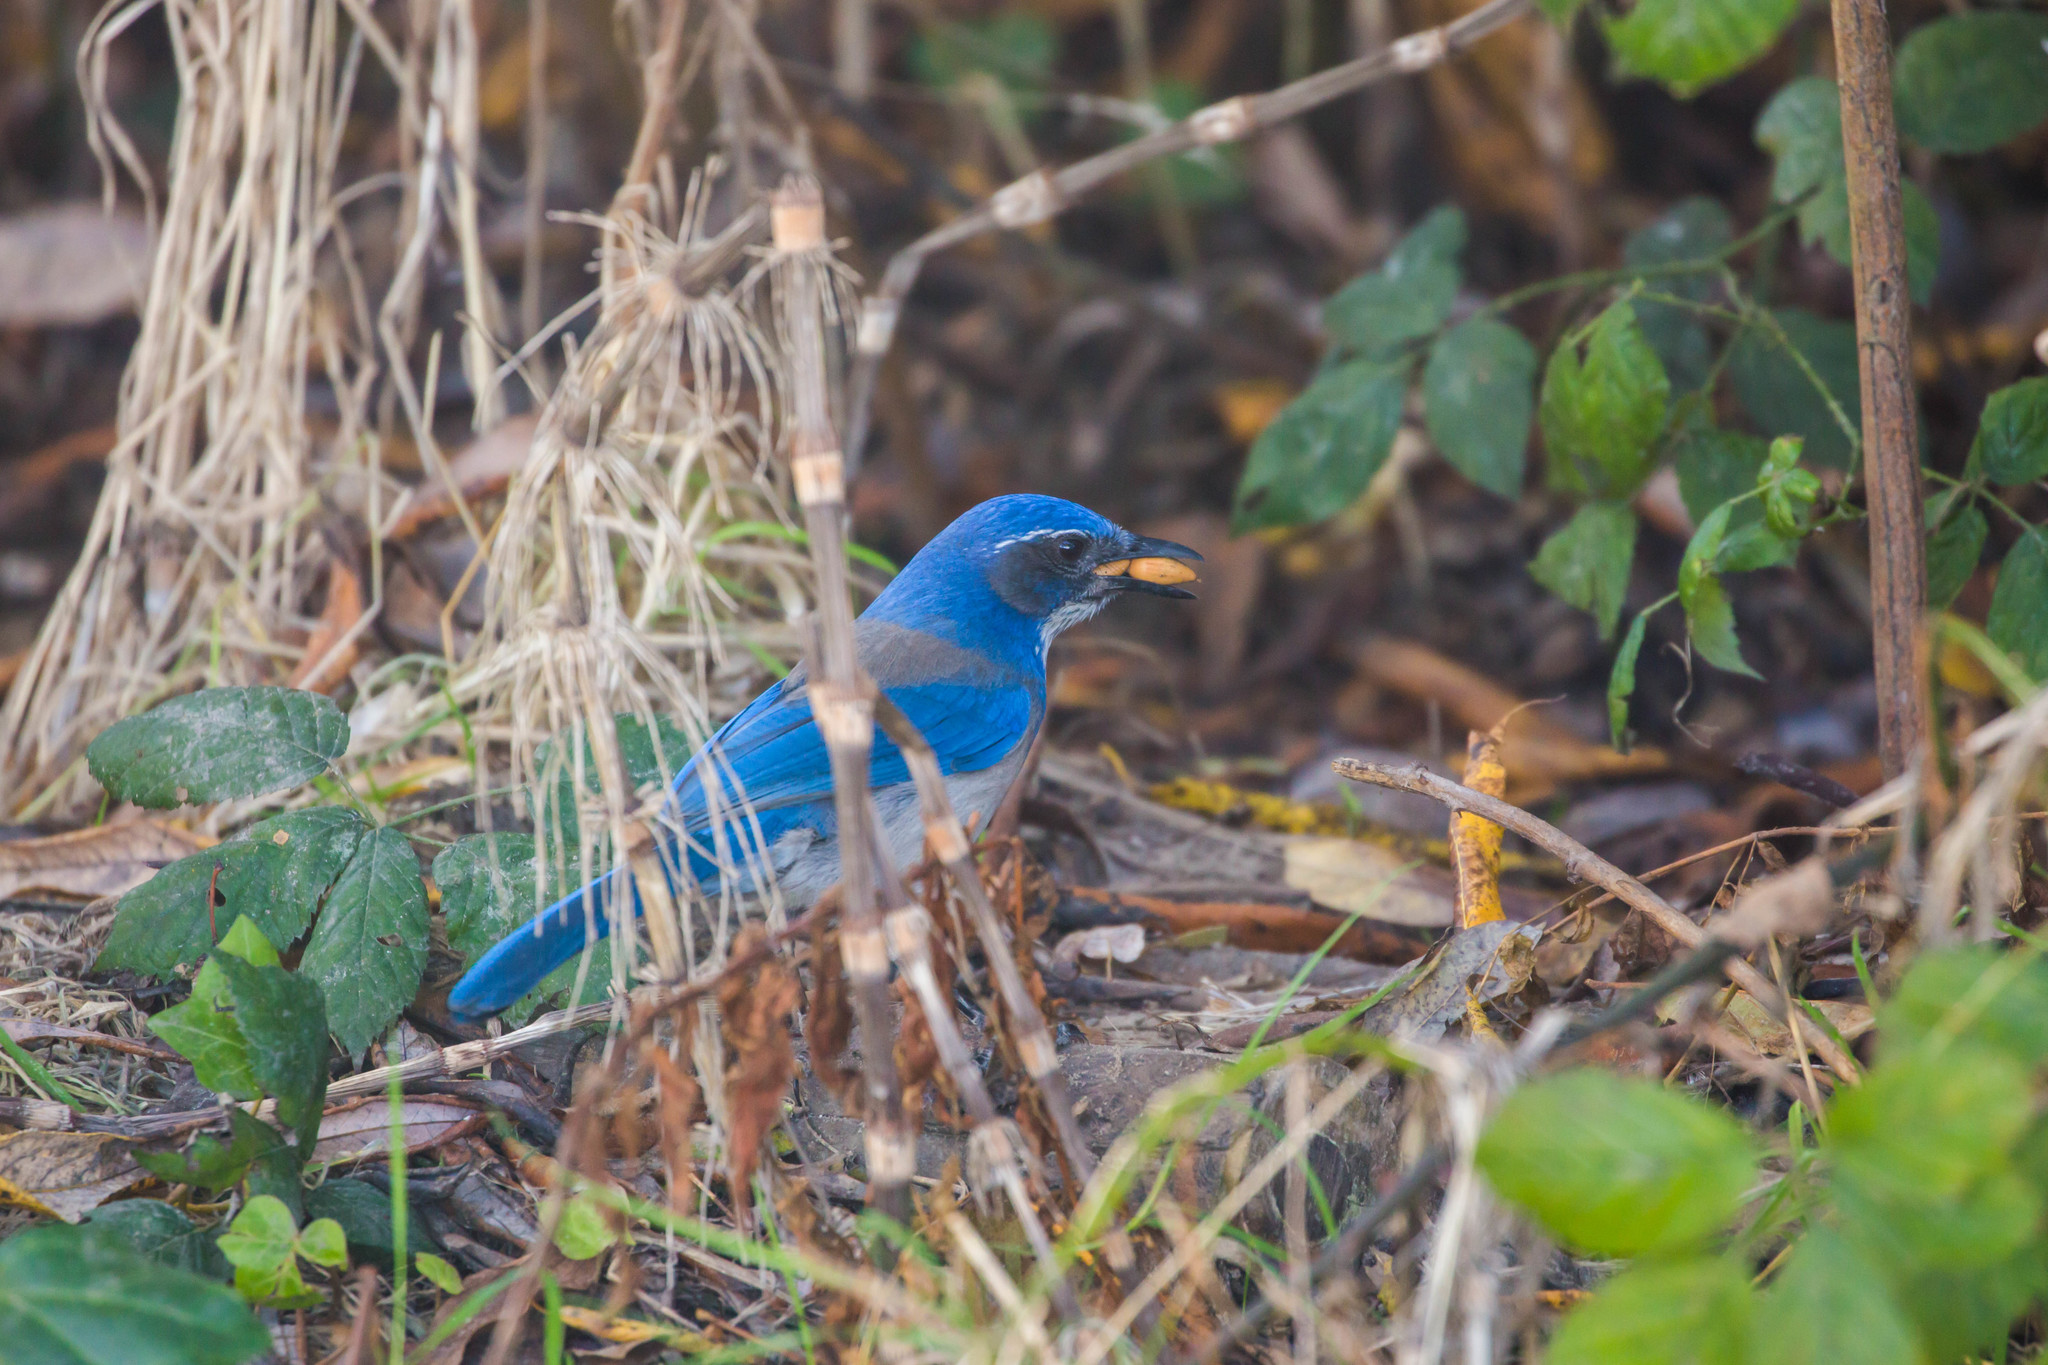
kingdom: Animalia
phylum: Chordata
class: Aves
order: Passeriformes
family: Corvidae
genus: Aphelocoma
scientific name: Aphelocoma californica
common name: California scrub-jay
